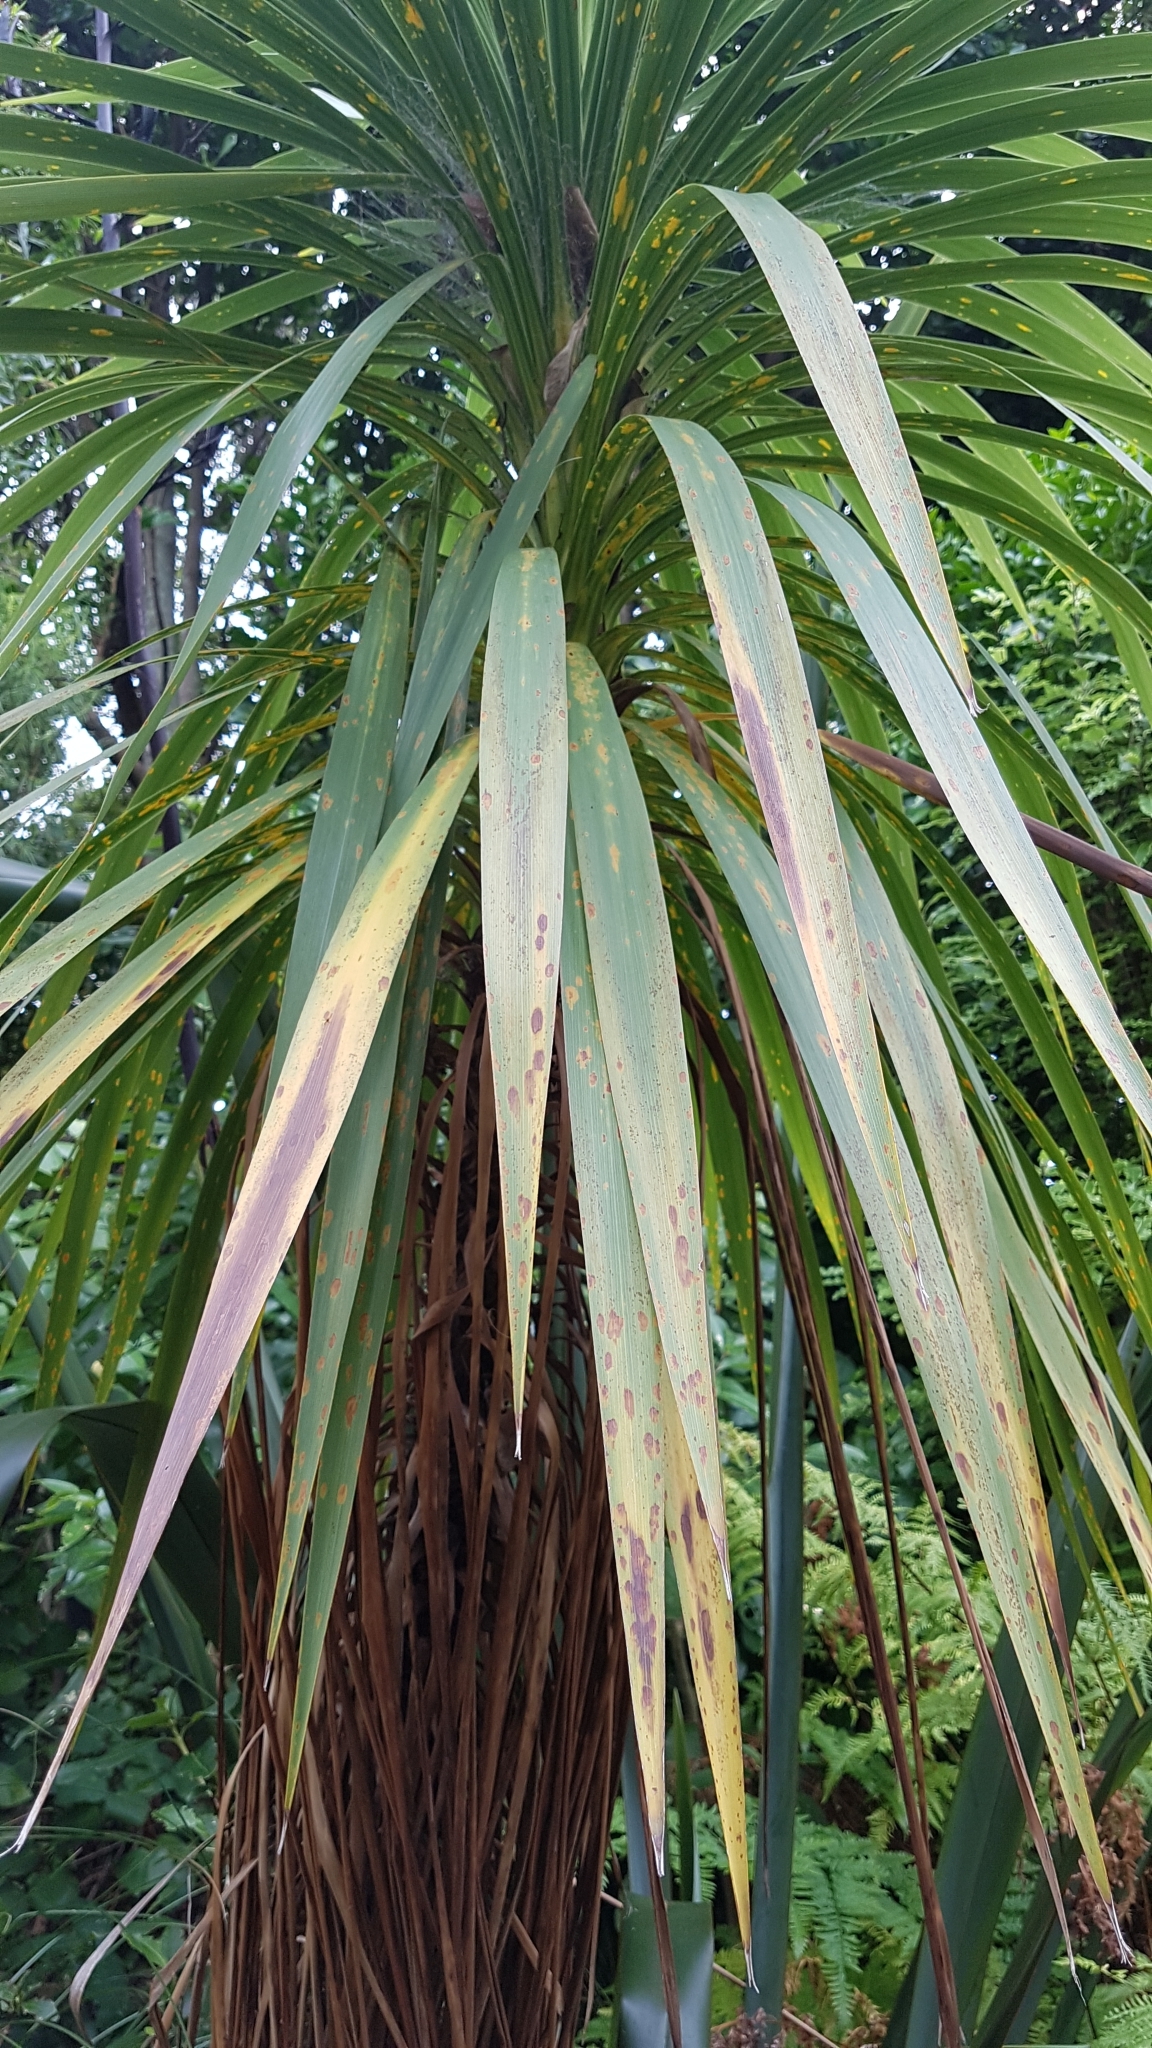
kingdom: Plantae
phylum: Tracheophyta
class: Liliopsida
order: Asparagales
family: Asparagaceae
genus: Cordyline
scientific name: Cordyline australis
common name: Cabbage-palm
